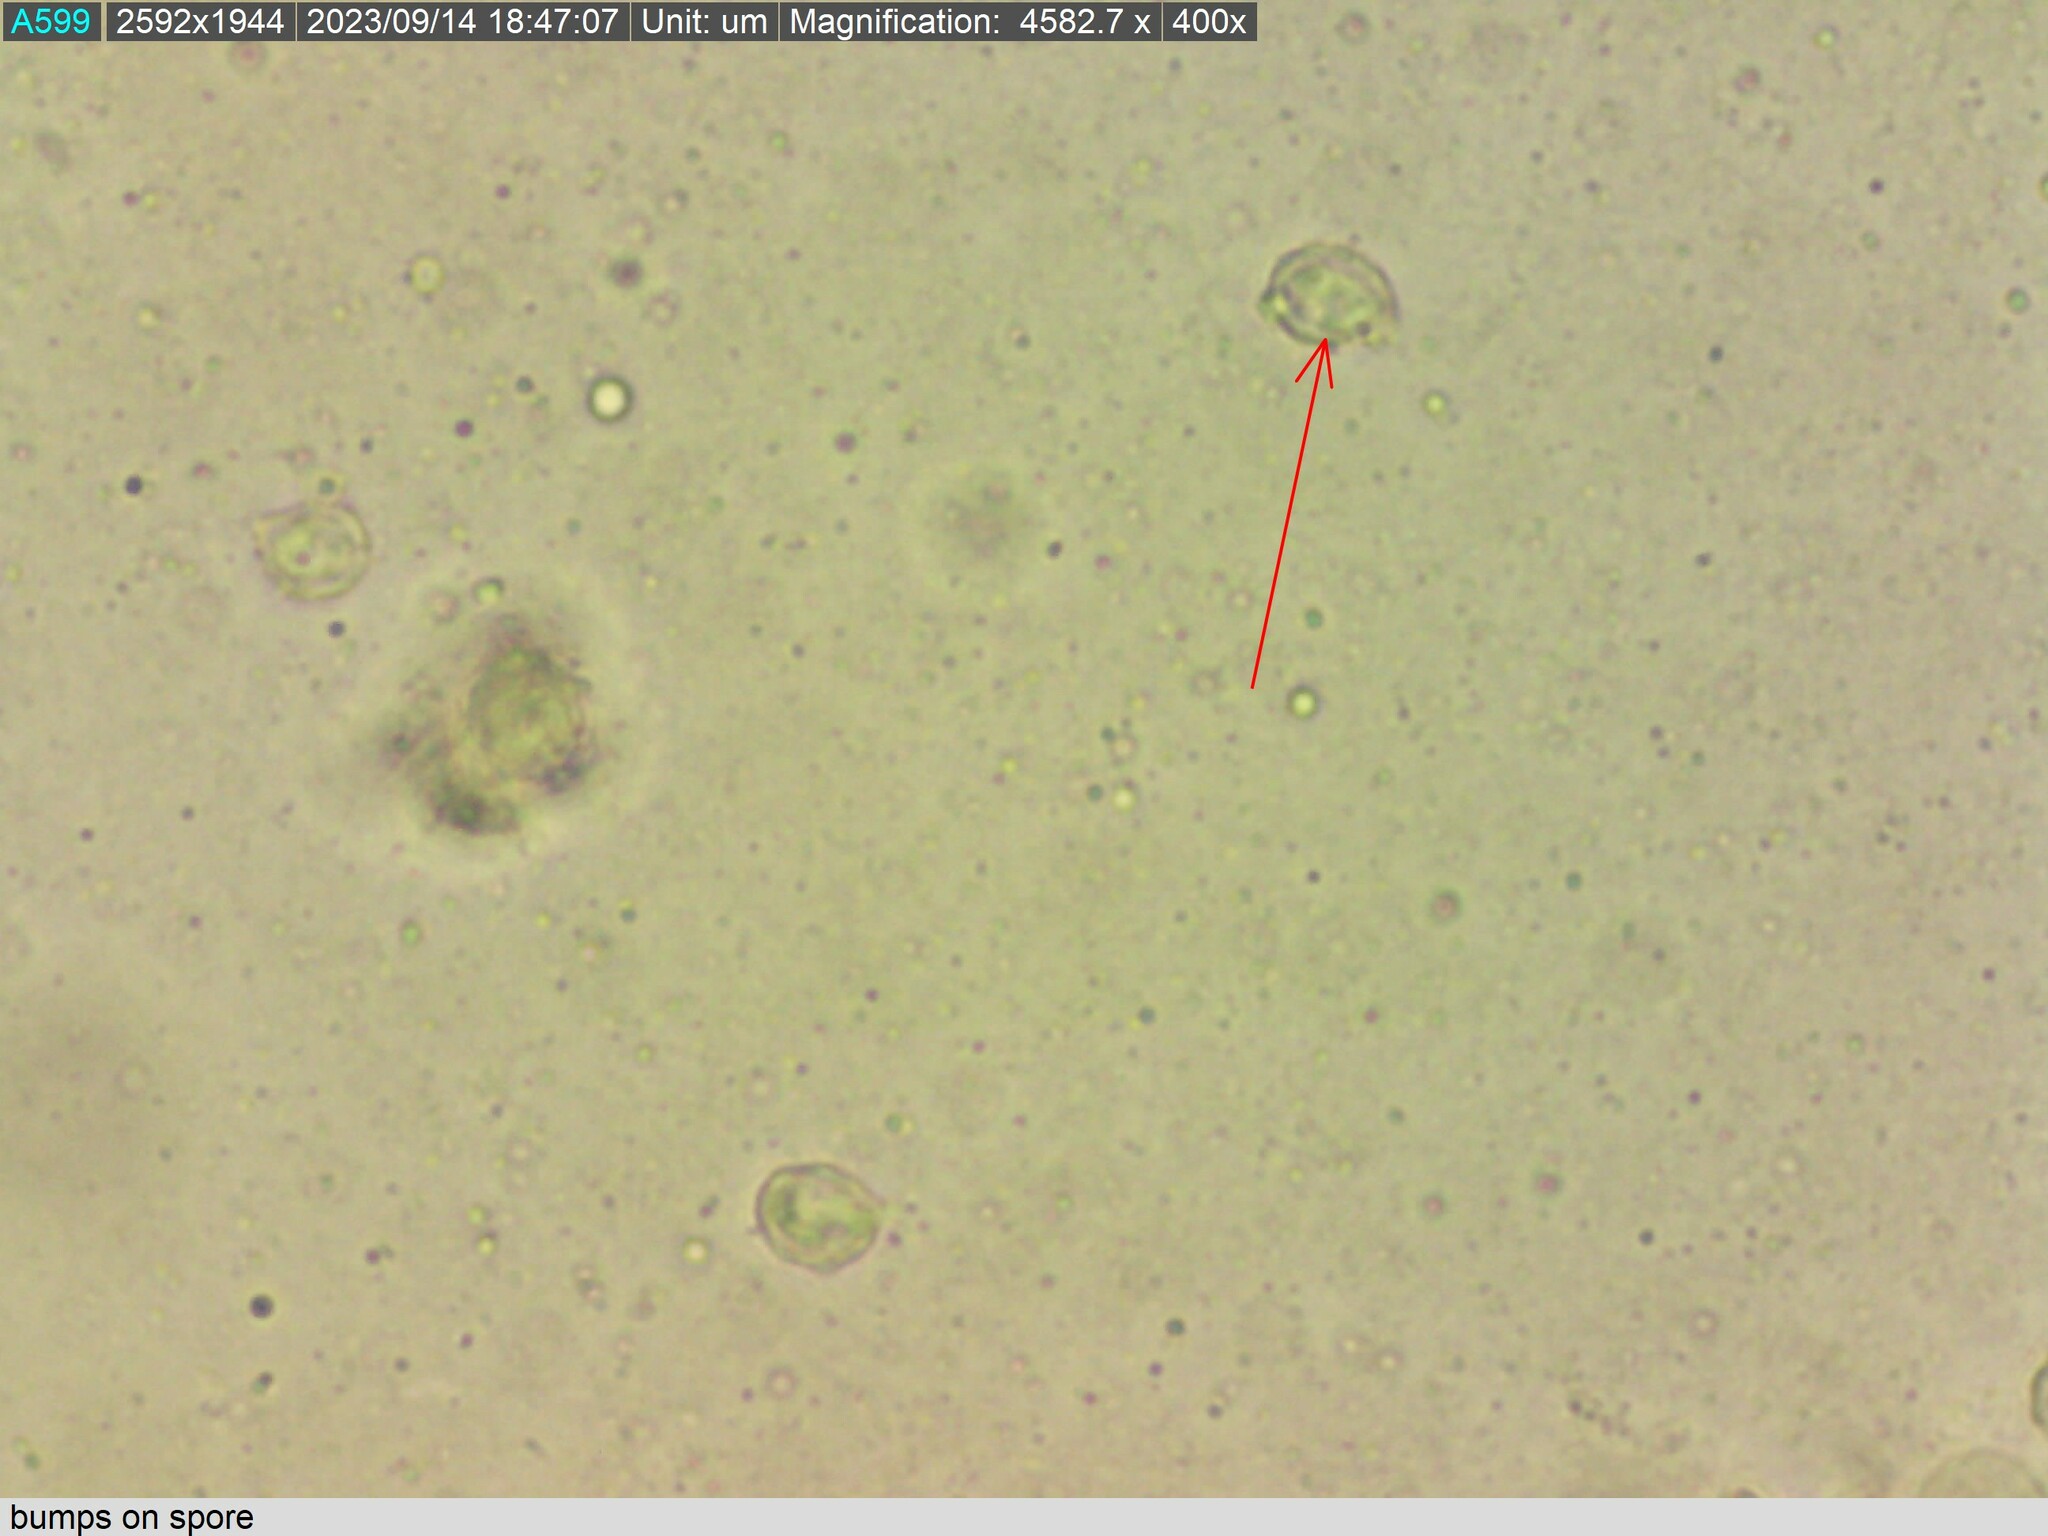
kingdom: Fungi
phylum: Basidiomycota
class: Agaricomycetes
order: Agaricales
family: Entolomataceae
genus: Clitopilus
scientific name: Clitopilus conchatus
